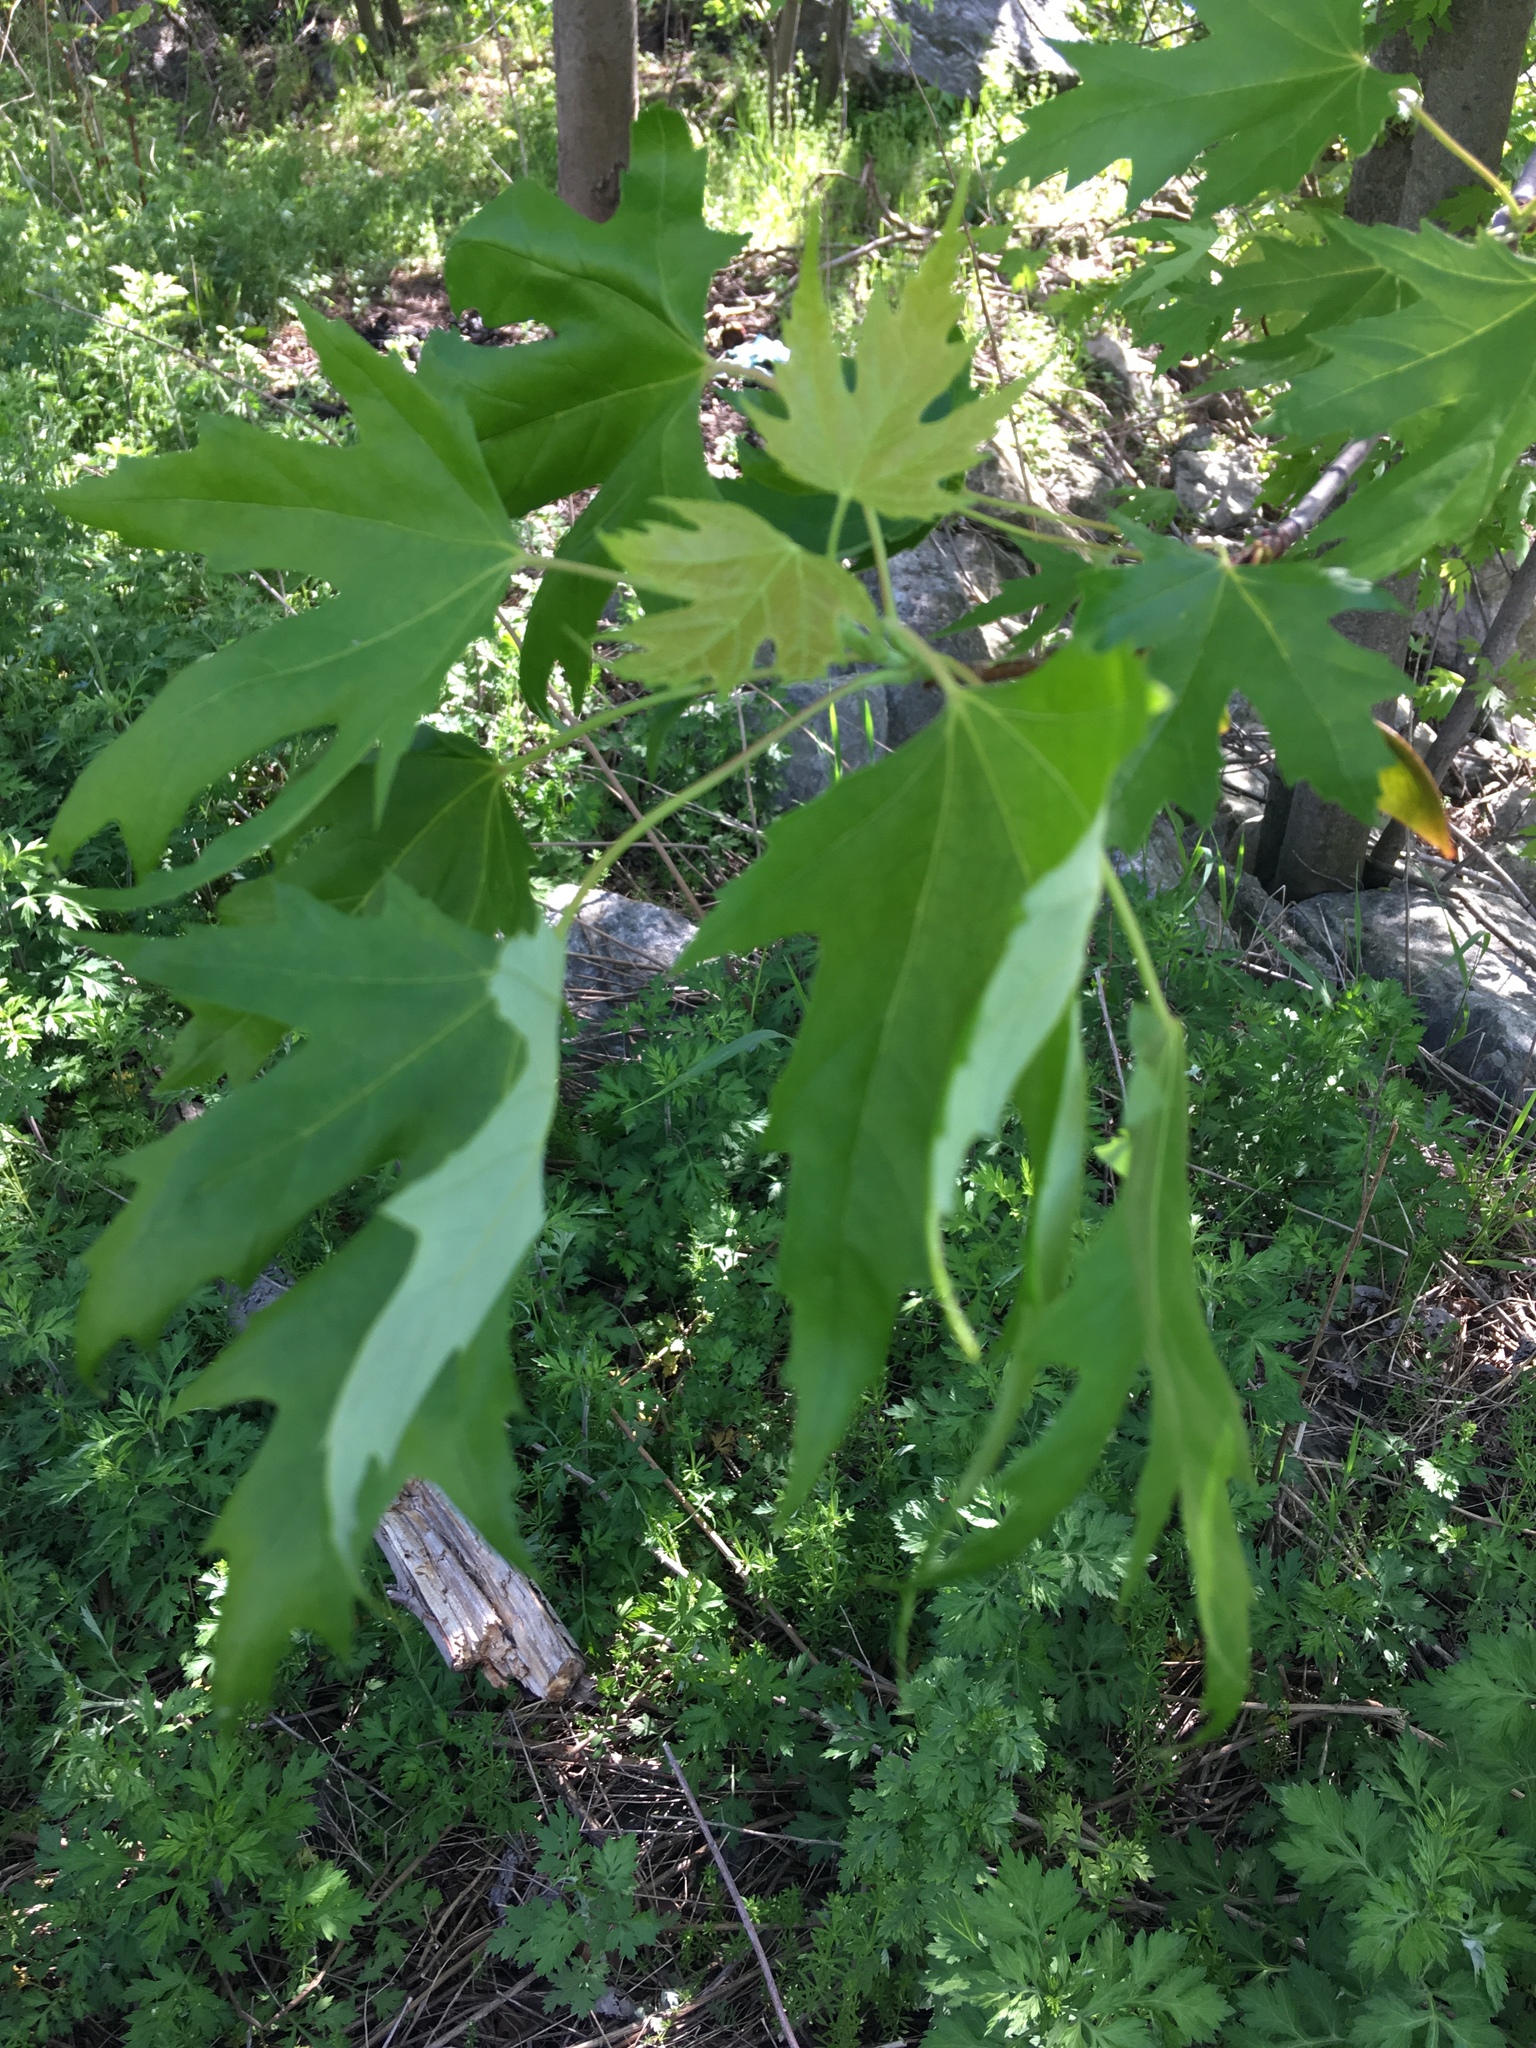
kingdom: Plantae
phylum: Tracheophyta
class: Magnoliopsida
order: Sapindales
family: Sapindaceae
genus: Acer
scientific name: Acer saccharinum
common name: Silver maple
